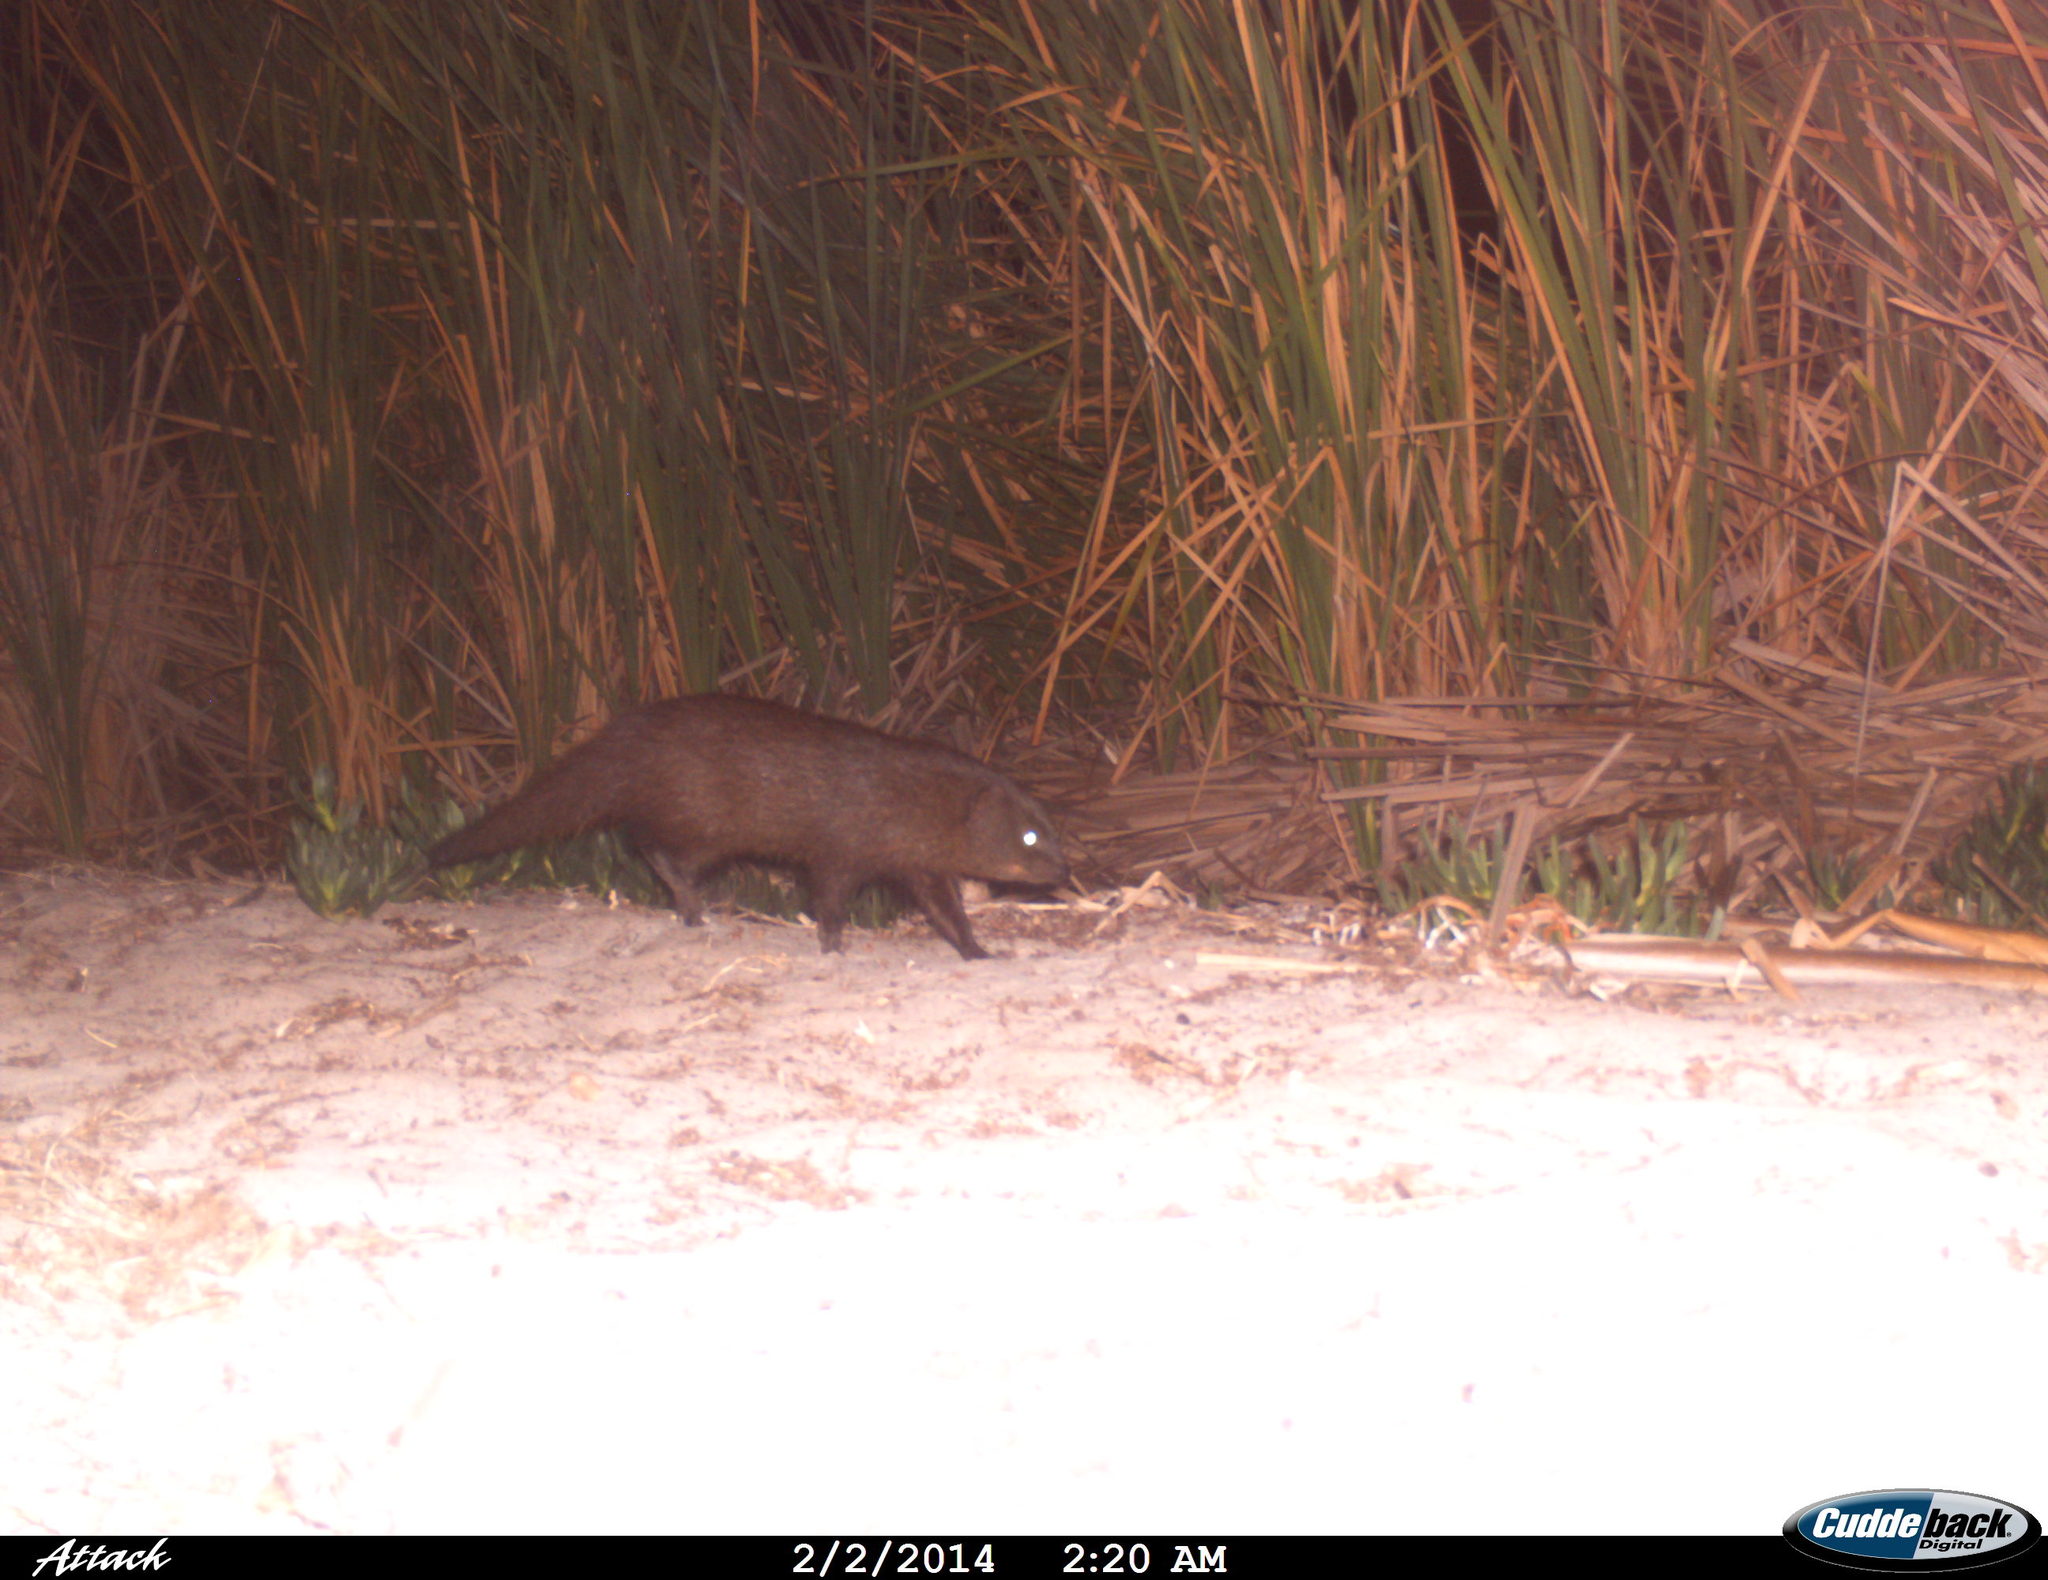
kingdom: Animalia
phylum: Chordata
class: Mammalia
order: Carnivora
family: Herpestidae
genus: Atilax
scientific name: Atilax paludinosus
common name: Marsh mongoose
